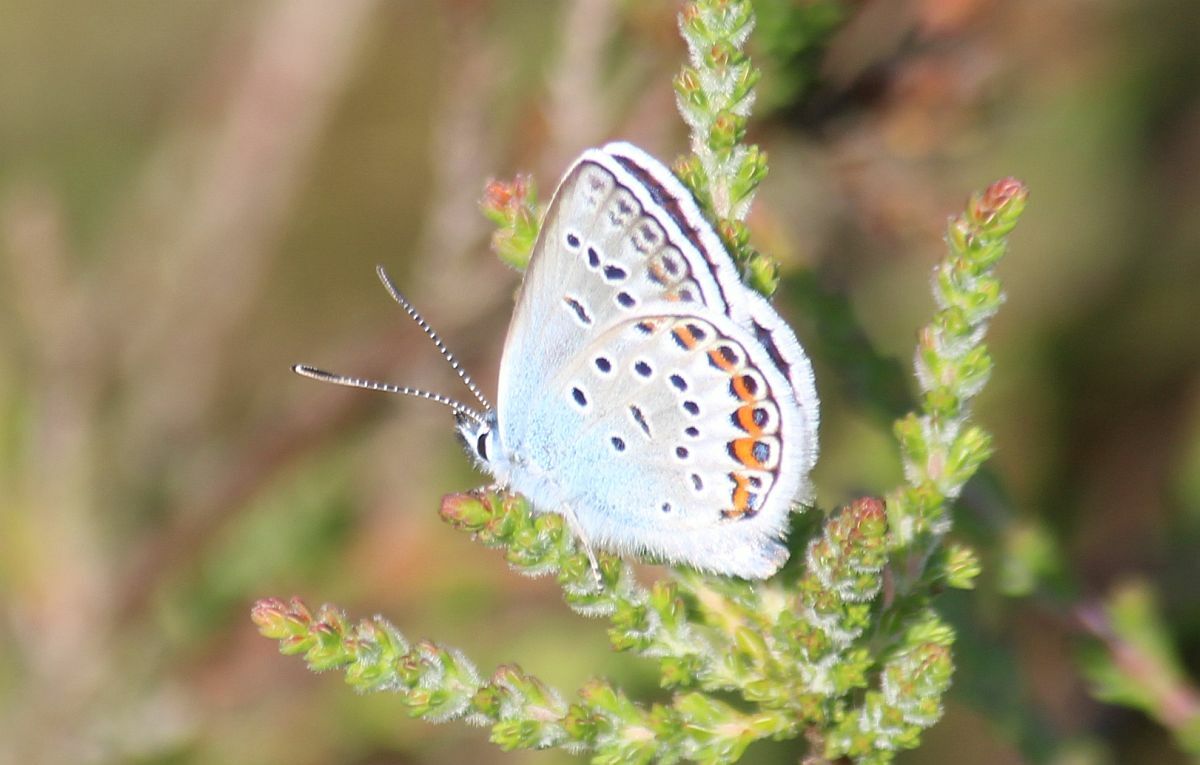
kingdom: Animalia
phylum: Arthropoda
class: Insecta
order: Lepidoptera
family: Lycaenidae
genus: Plebejus
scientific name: Plebejus argus
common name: Silver-studded blue
